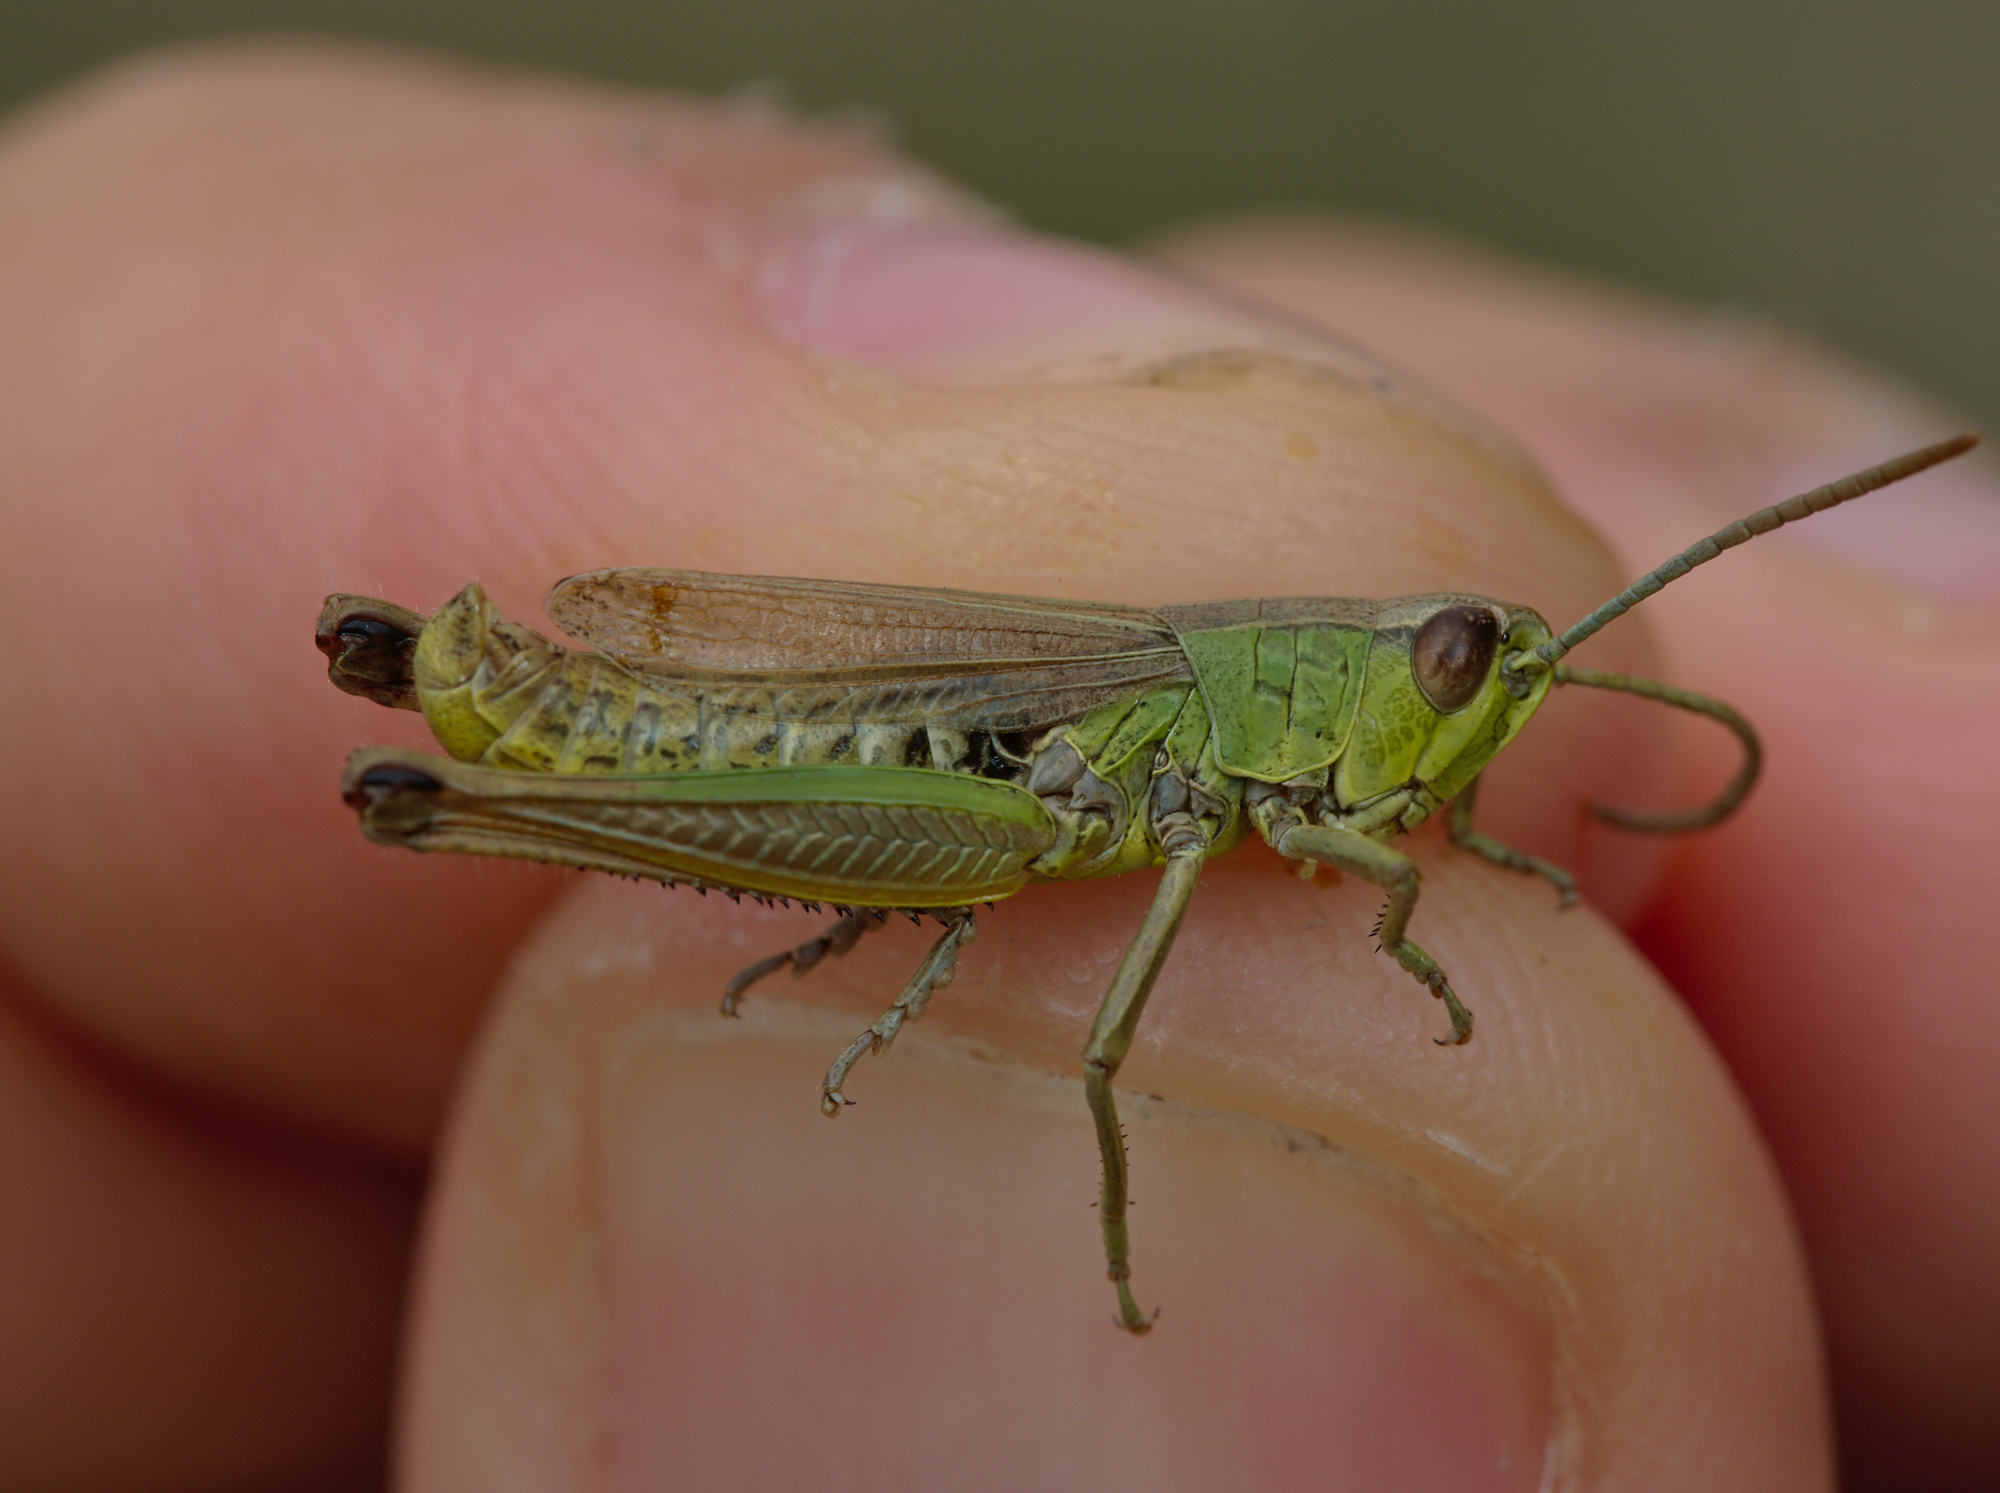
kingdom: Animalia
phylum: Arthropoda
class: Insecta
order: Orthoptera
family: Acrididae
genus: Pseudochorthippus
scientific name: Pseudochorthippus parallelus
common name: Meadow grasshopper
